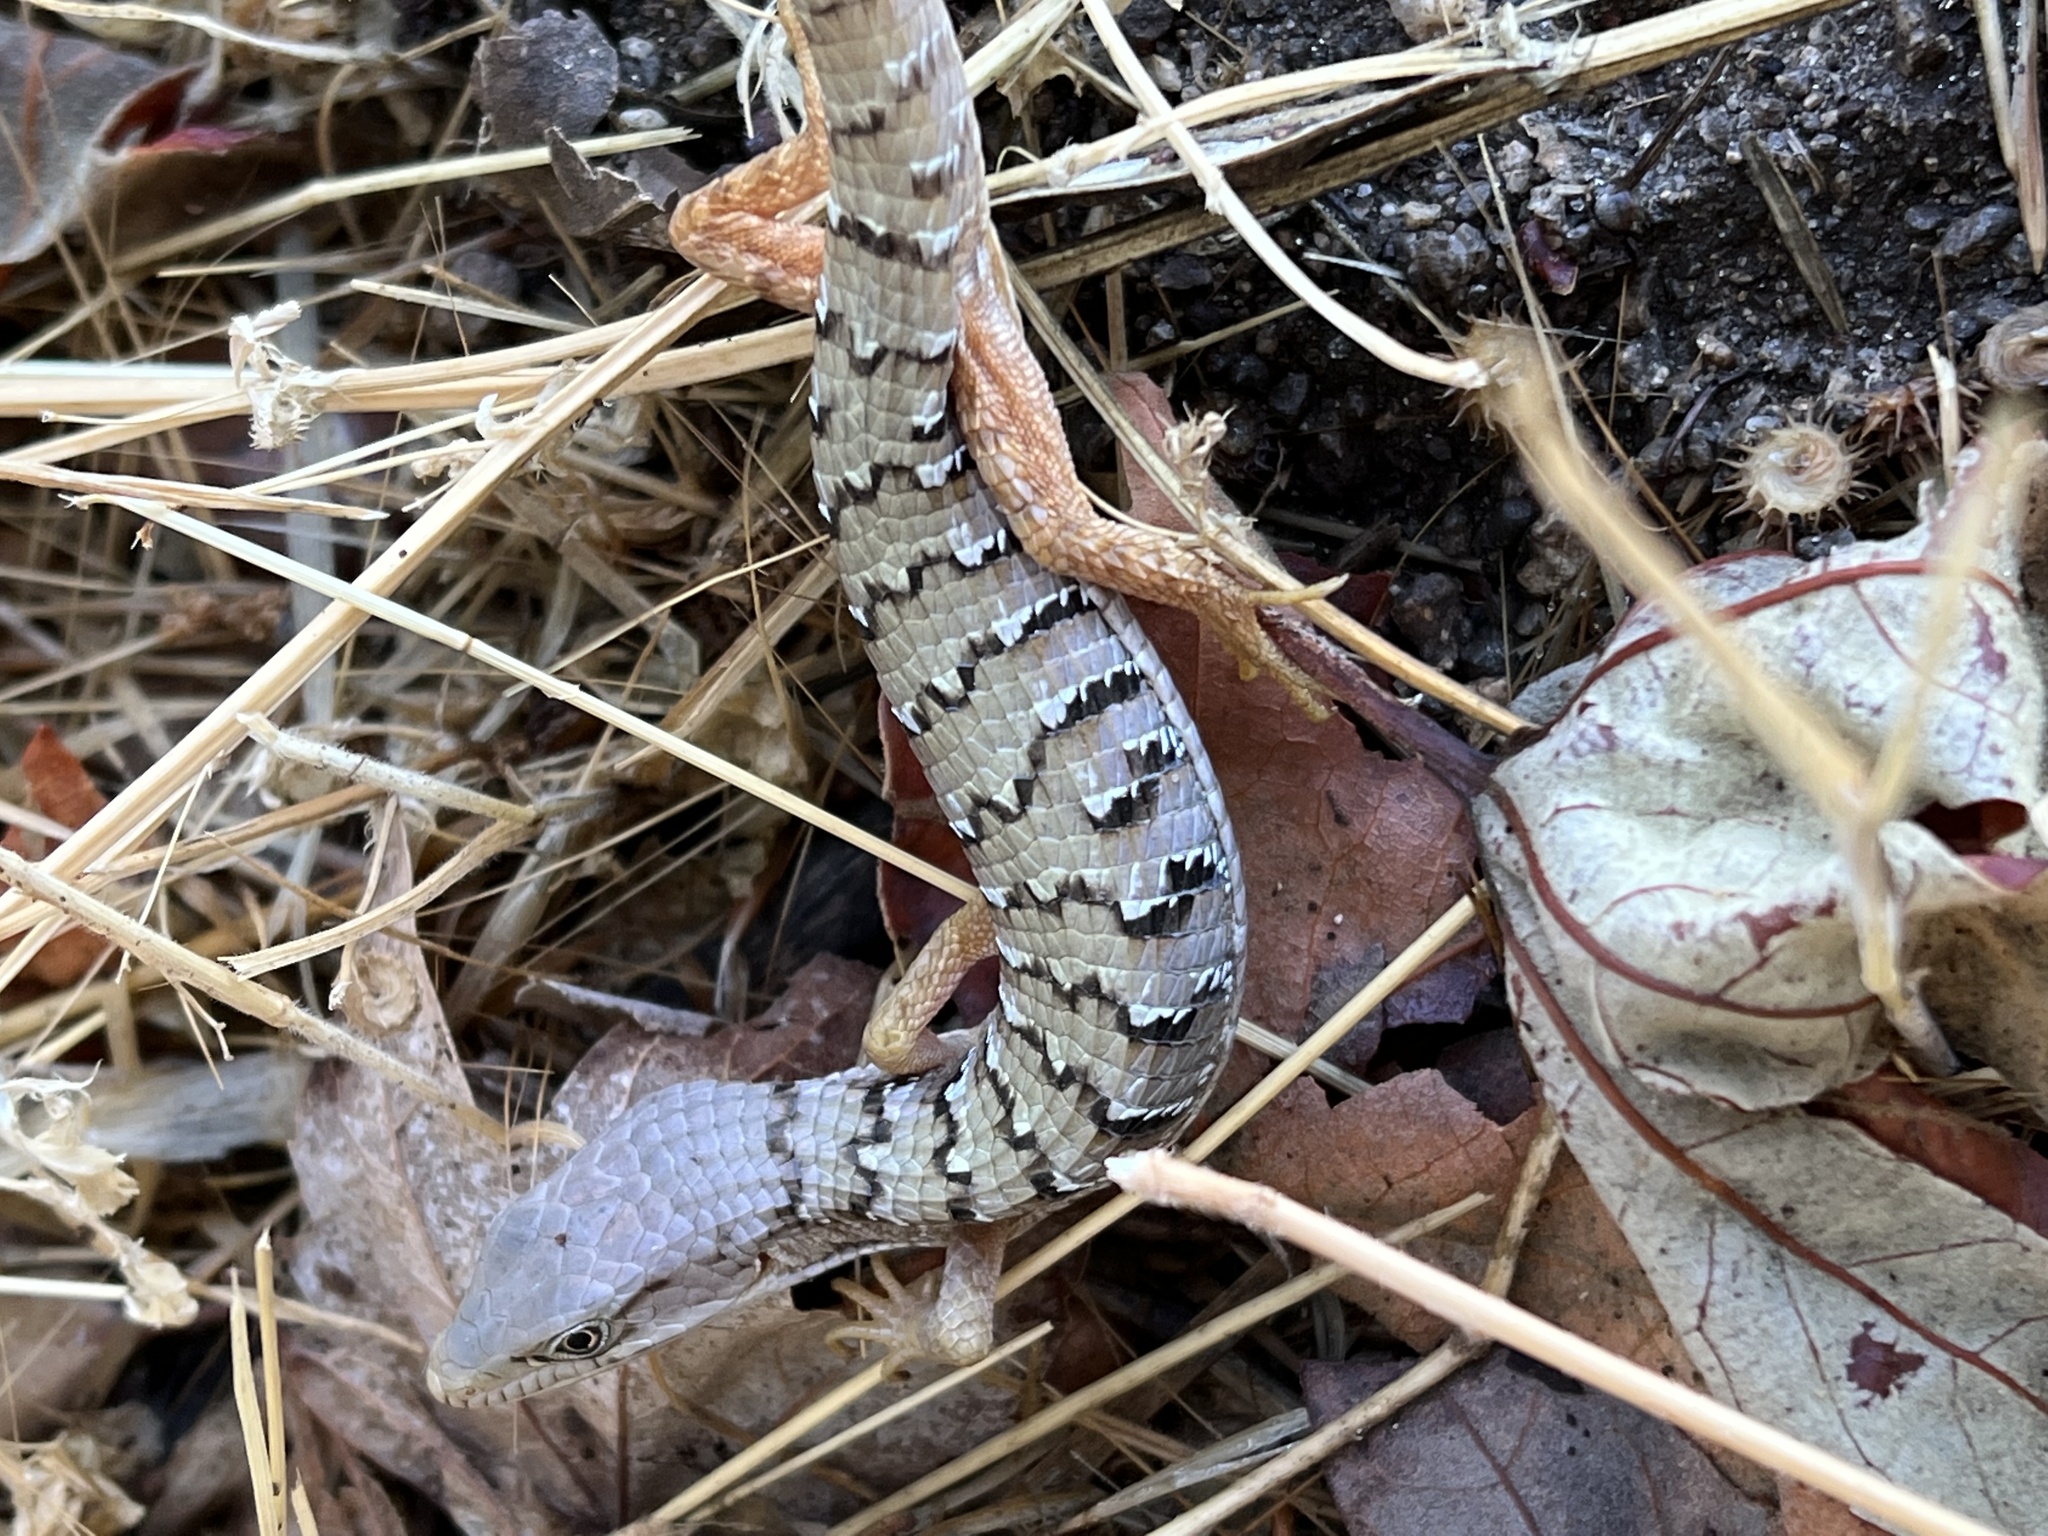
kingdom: Animalia
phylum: Chordata
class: Squamata
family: Anguidae
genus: Elgaria
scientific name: Elgaria multicarinata
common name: Southern alligator lizard
